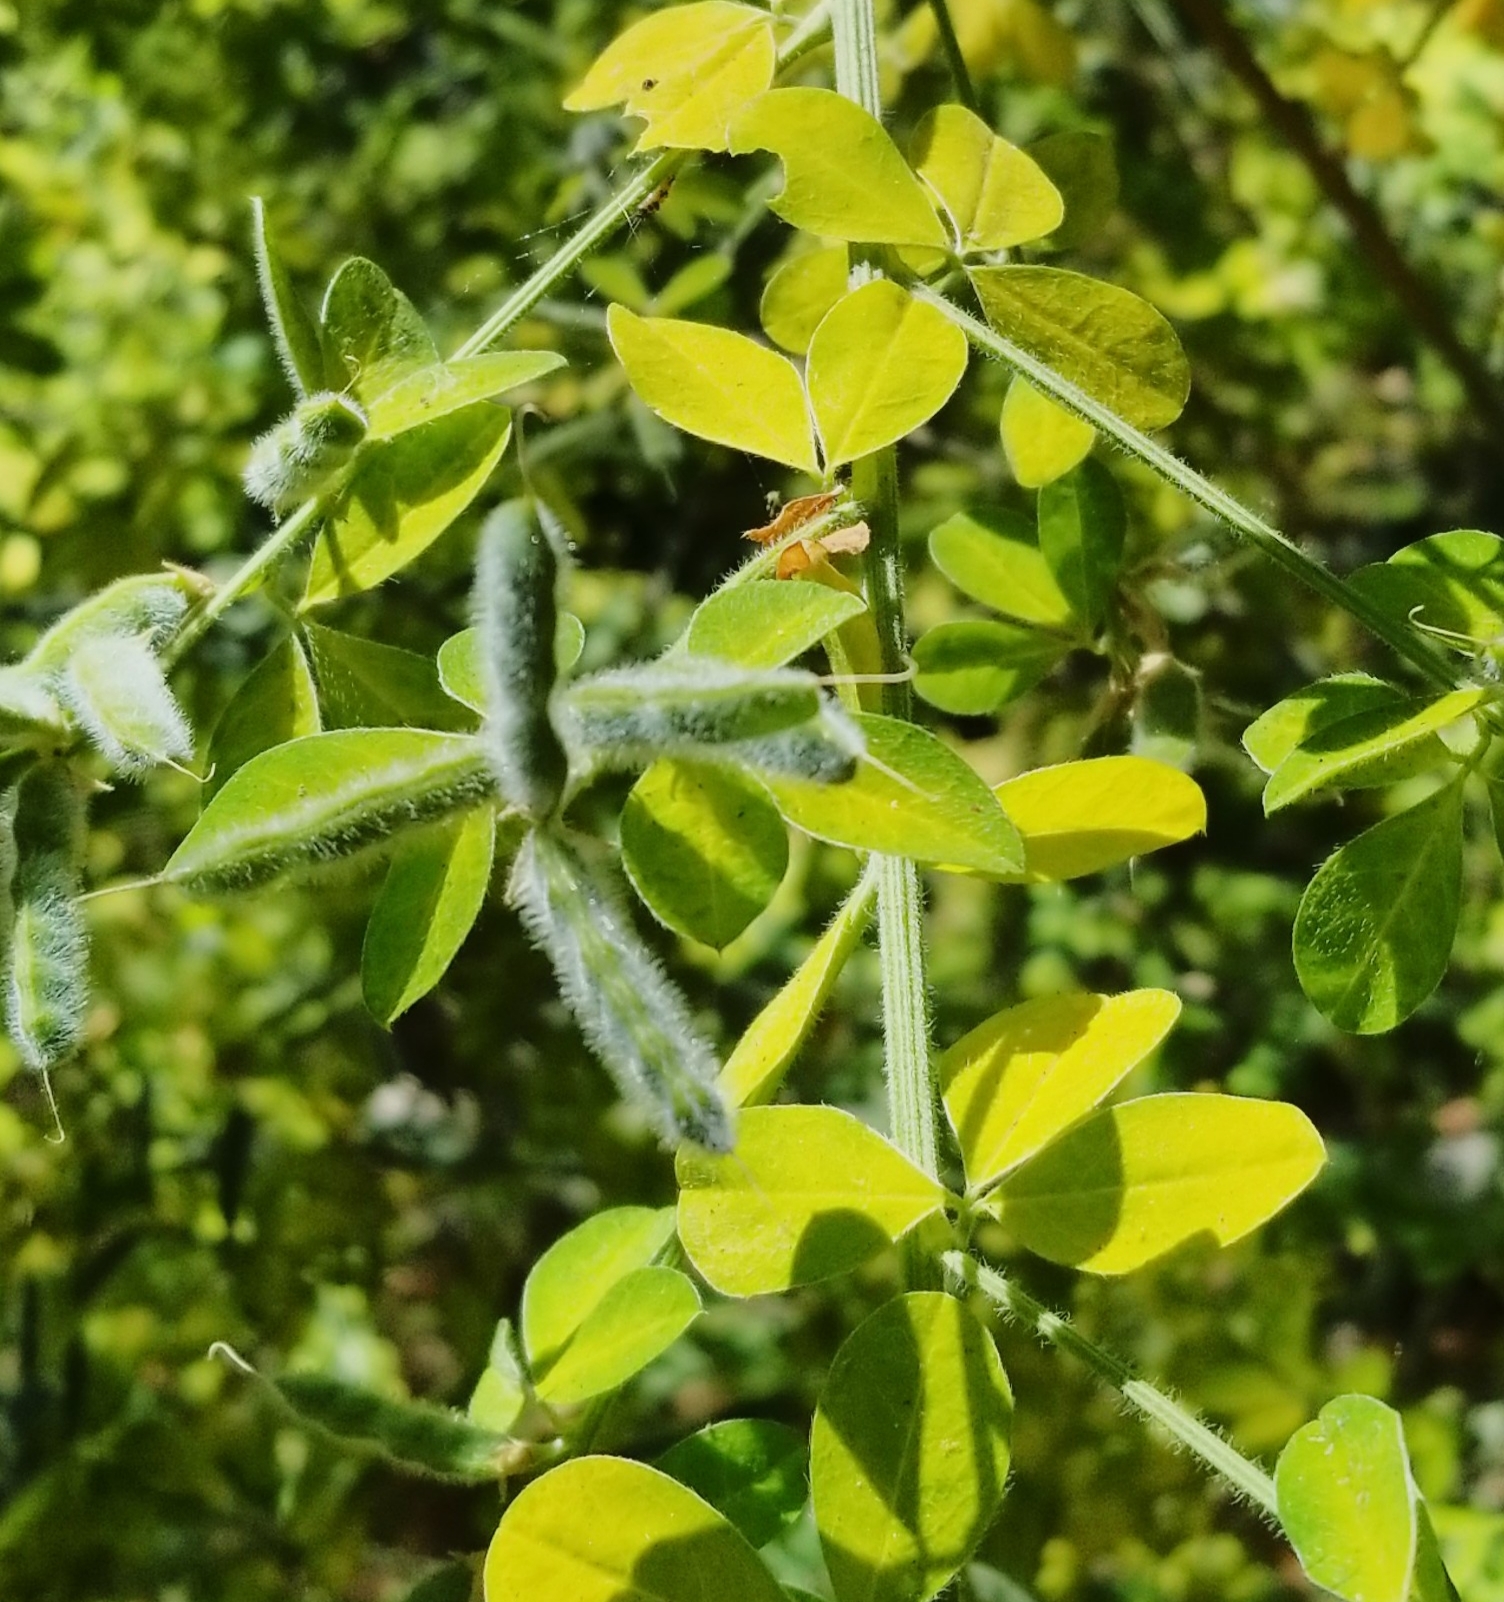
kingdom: Plantae
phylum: Tracheophyta
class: Magnoliopsida
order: Fabales
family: Fabaceae
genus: Genista
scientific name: Genista monspessulana
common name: Montpellier broom
